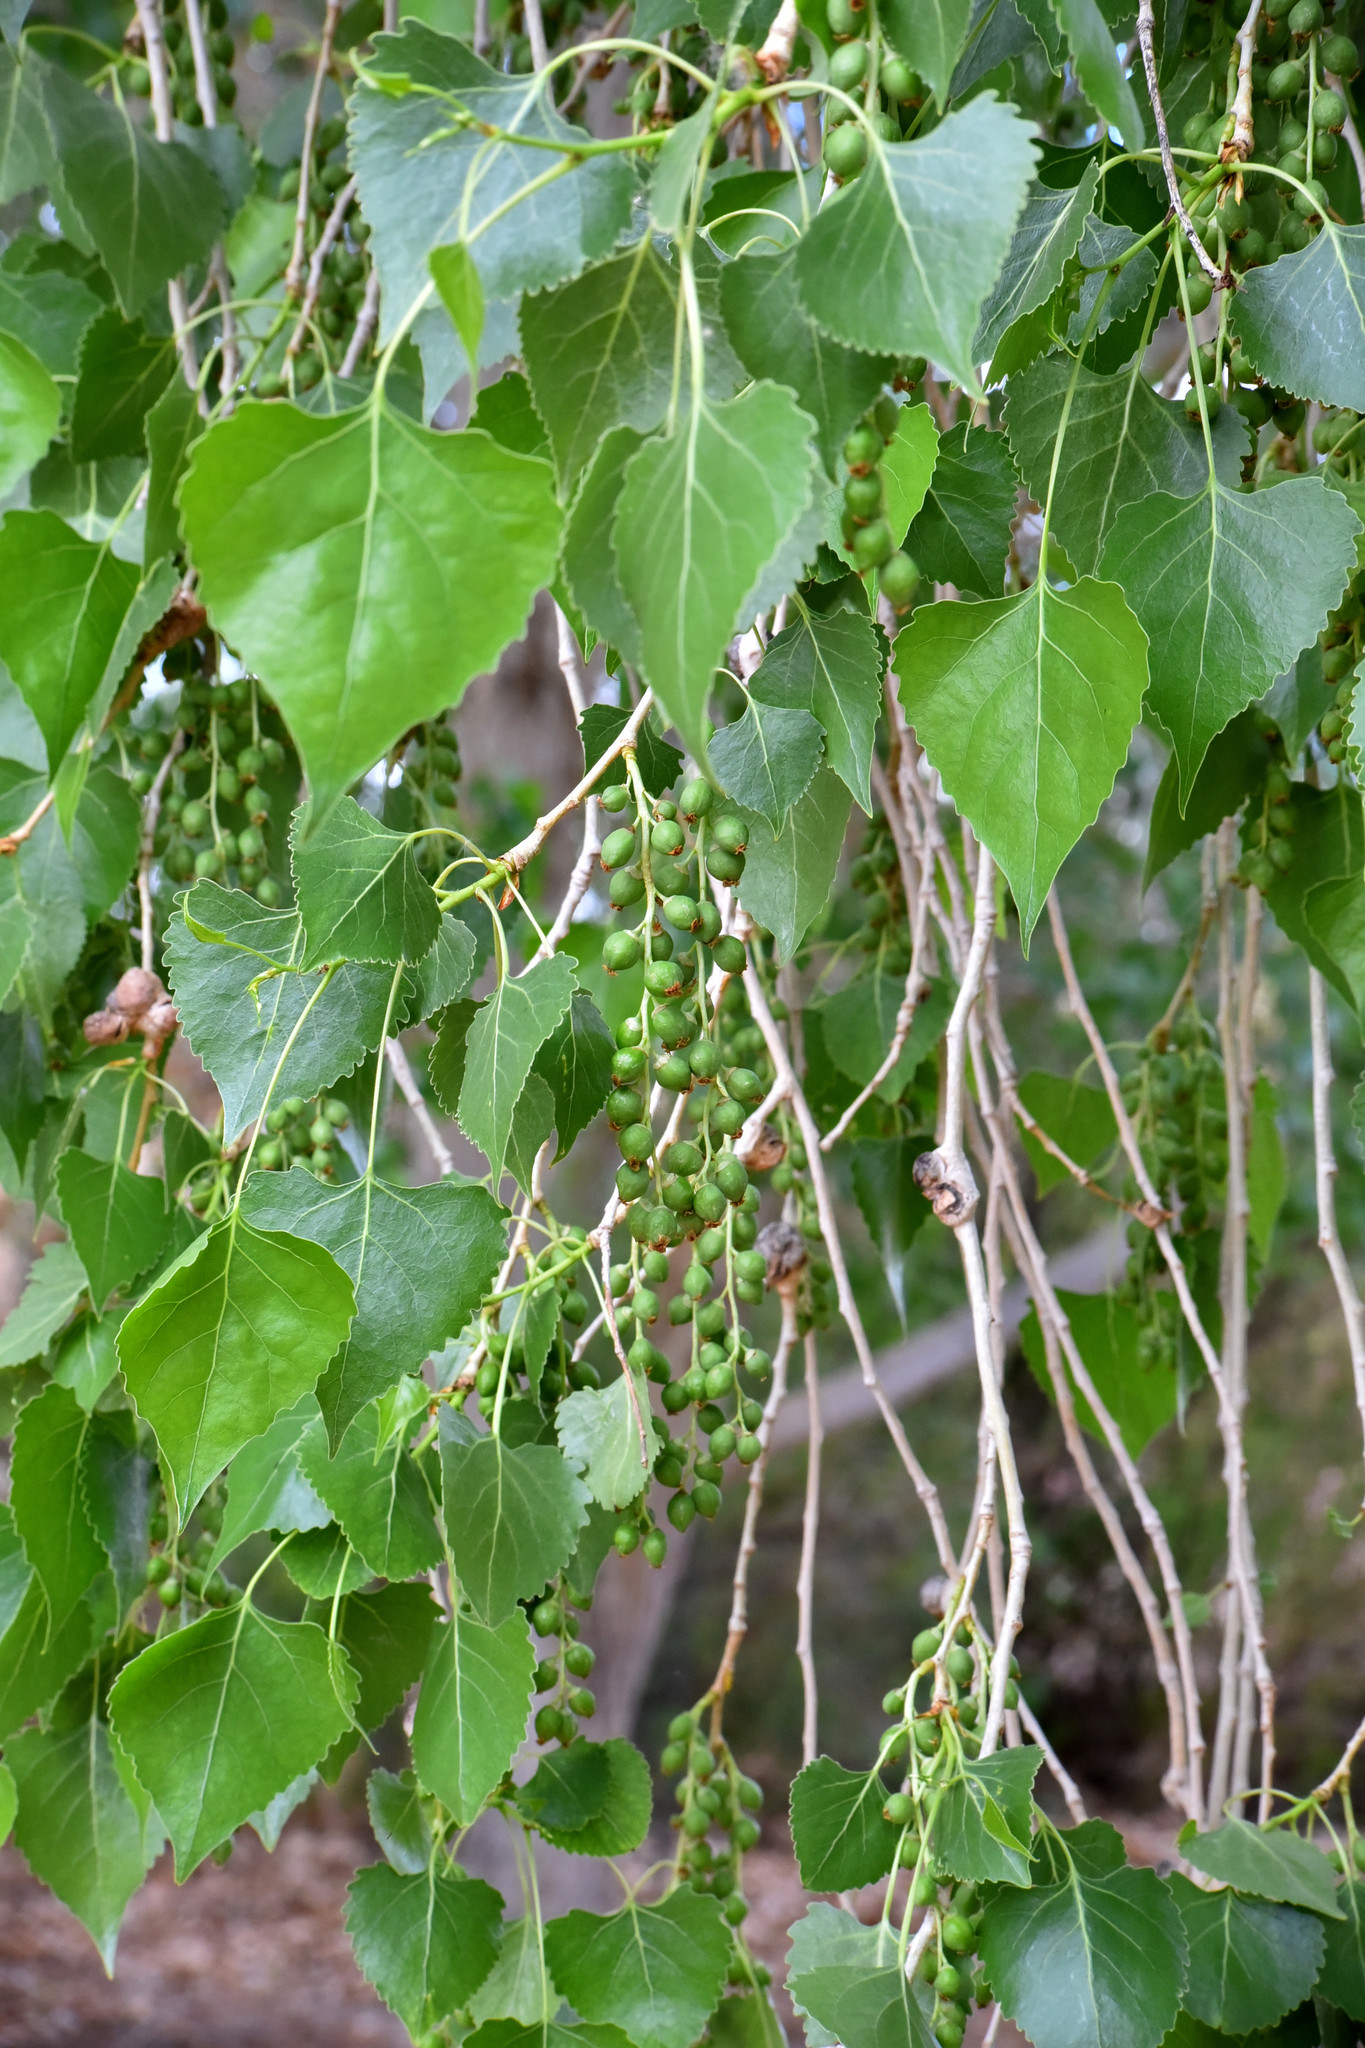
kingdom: Plantae
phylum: Tracheophyta
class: Magnoliopsida
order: Malpighiales
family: Salicaceae
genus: Populus
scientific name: Populus fremontii
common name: Fremont's cottonwood
